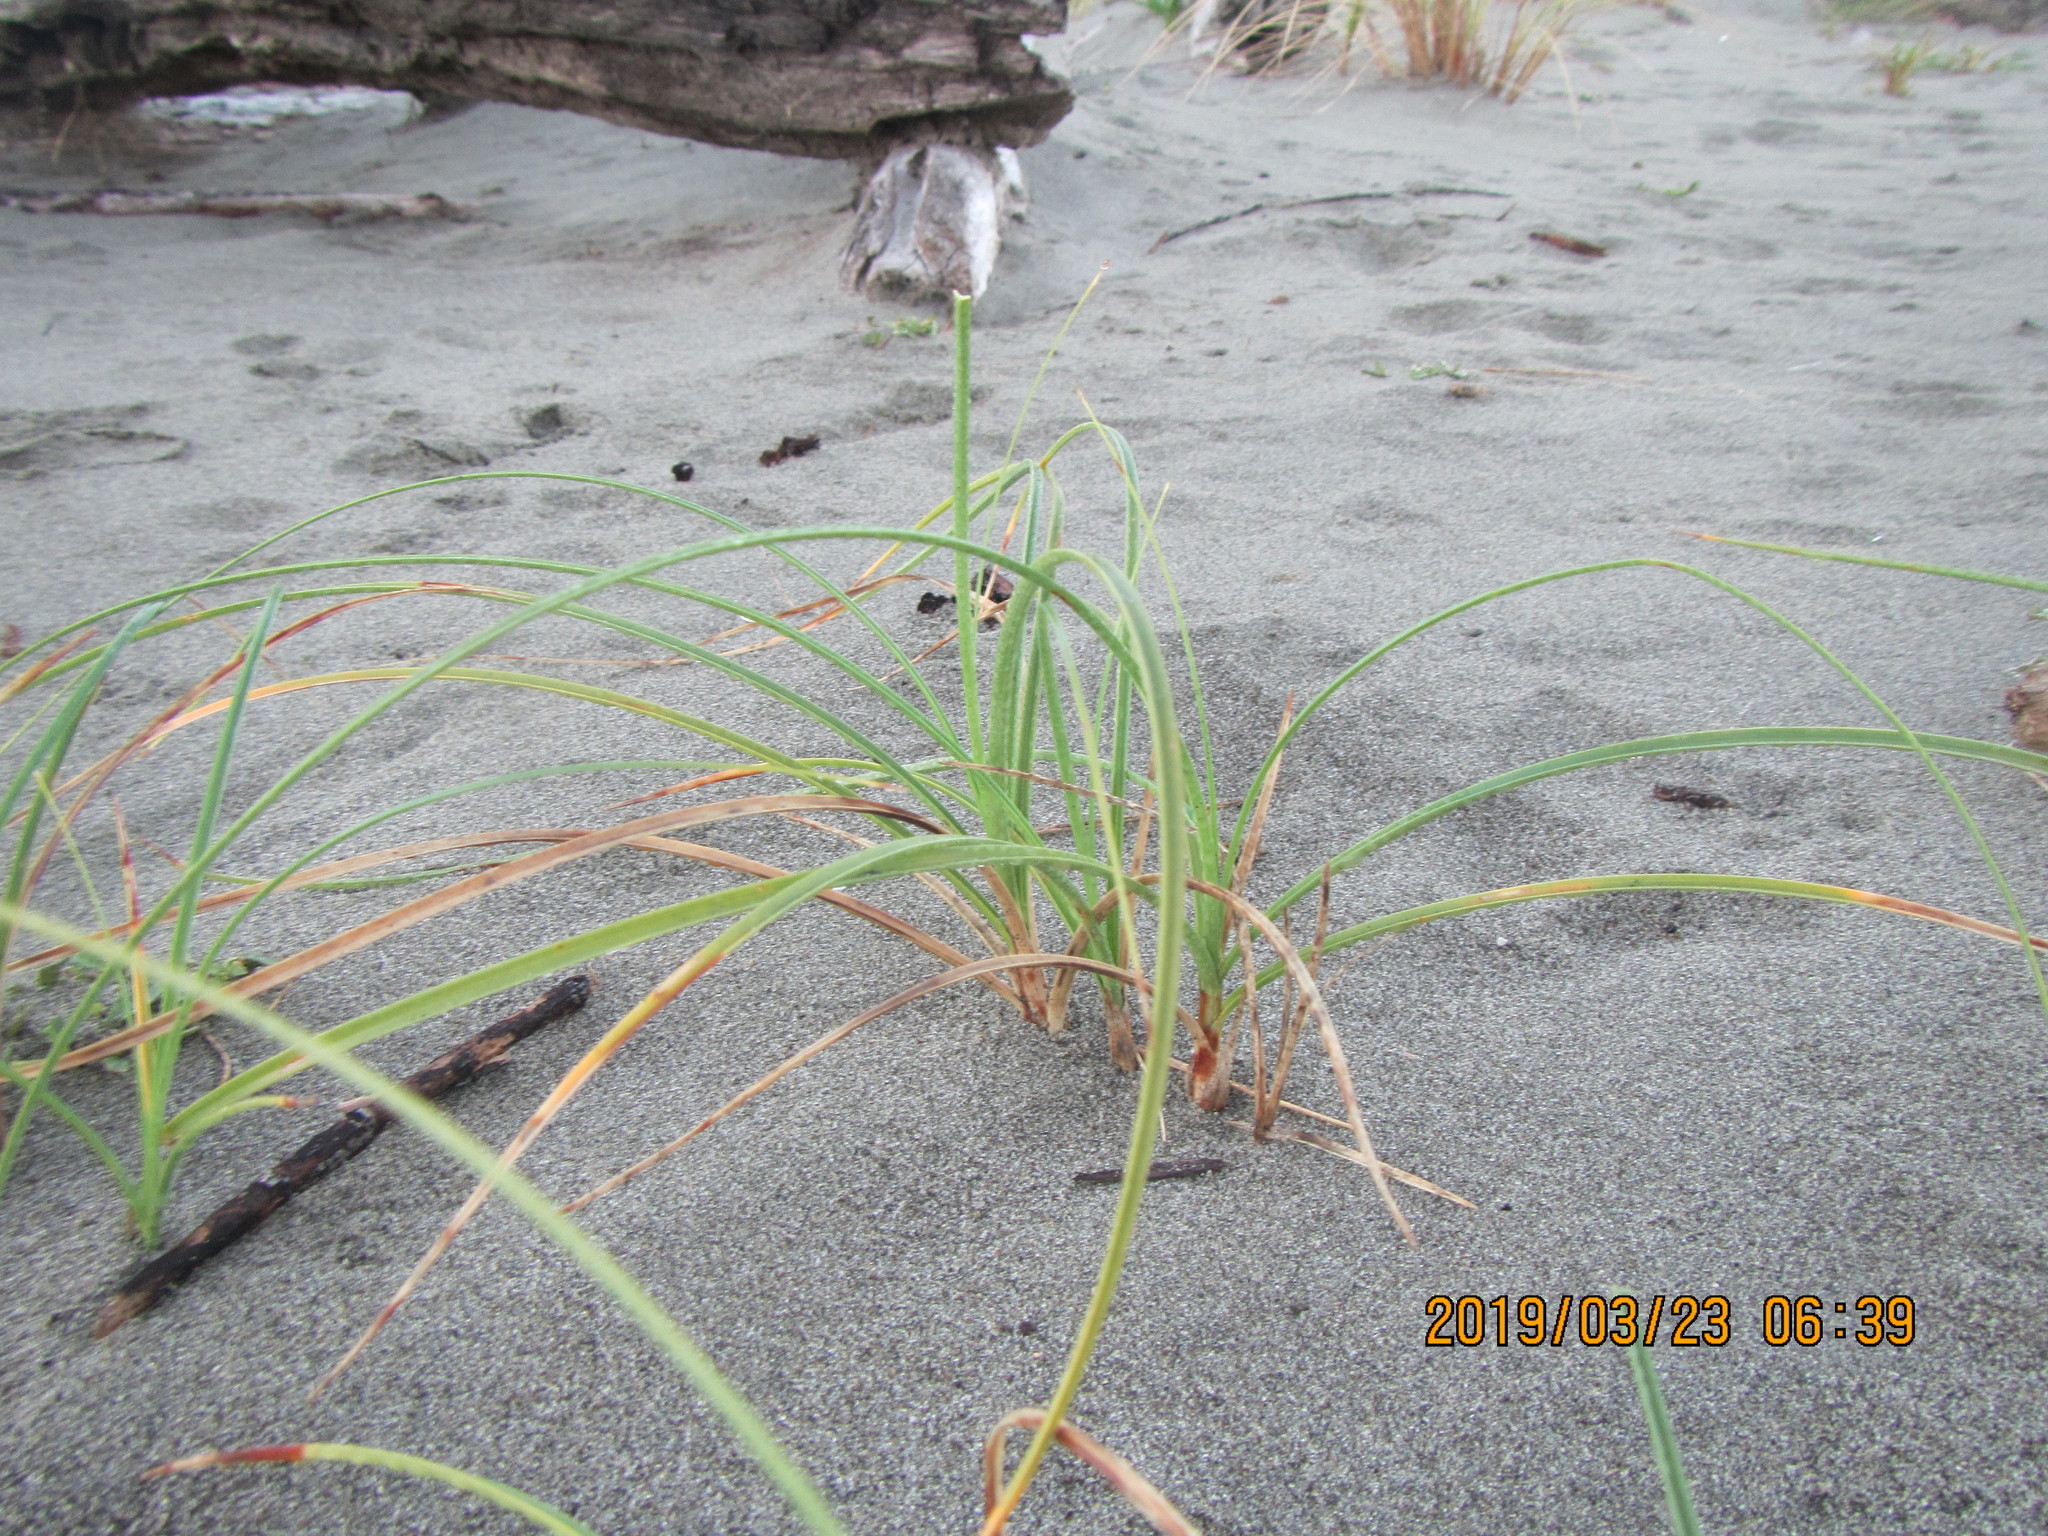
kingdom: Plantae
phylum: Tracheophyta
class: Liliopsida
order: Poales
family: Cyperaceae
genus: Carex
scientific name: Carex pumila
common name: Dwarf sedge
